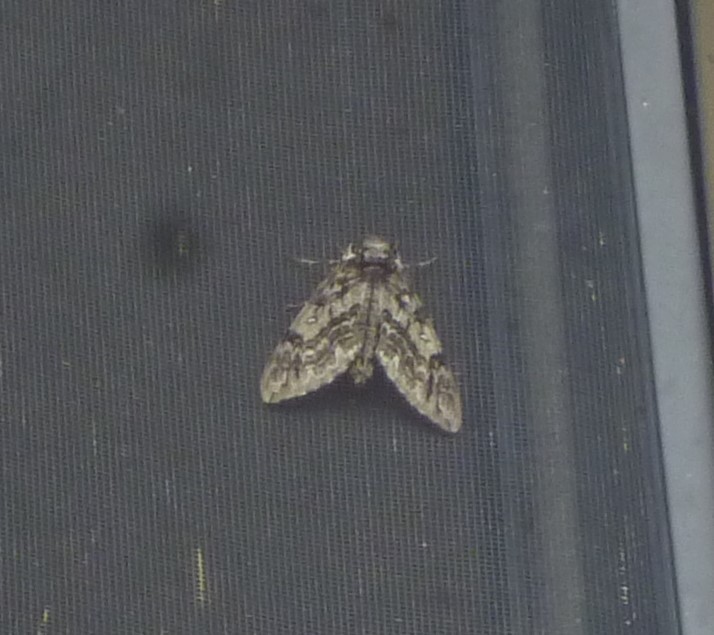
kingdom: Animalia
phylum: Arthropoda
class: Insecta
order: Lepidoptera
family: Sphingidae
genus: Ceratomia
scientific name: Ceratomia undulosa
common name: Waved sphinx
